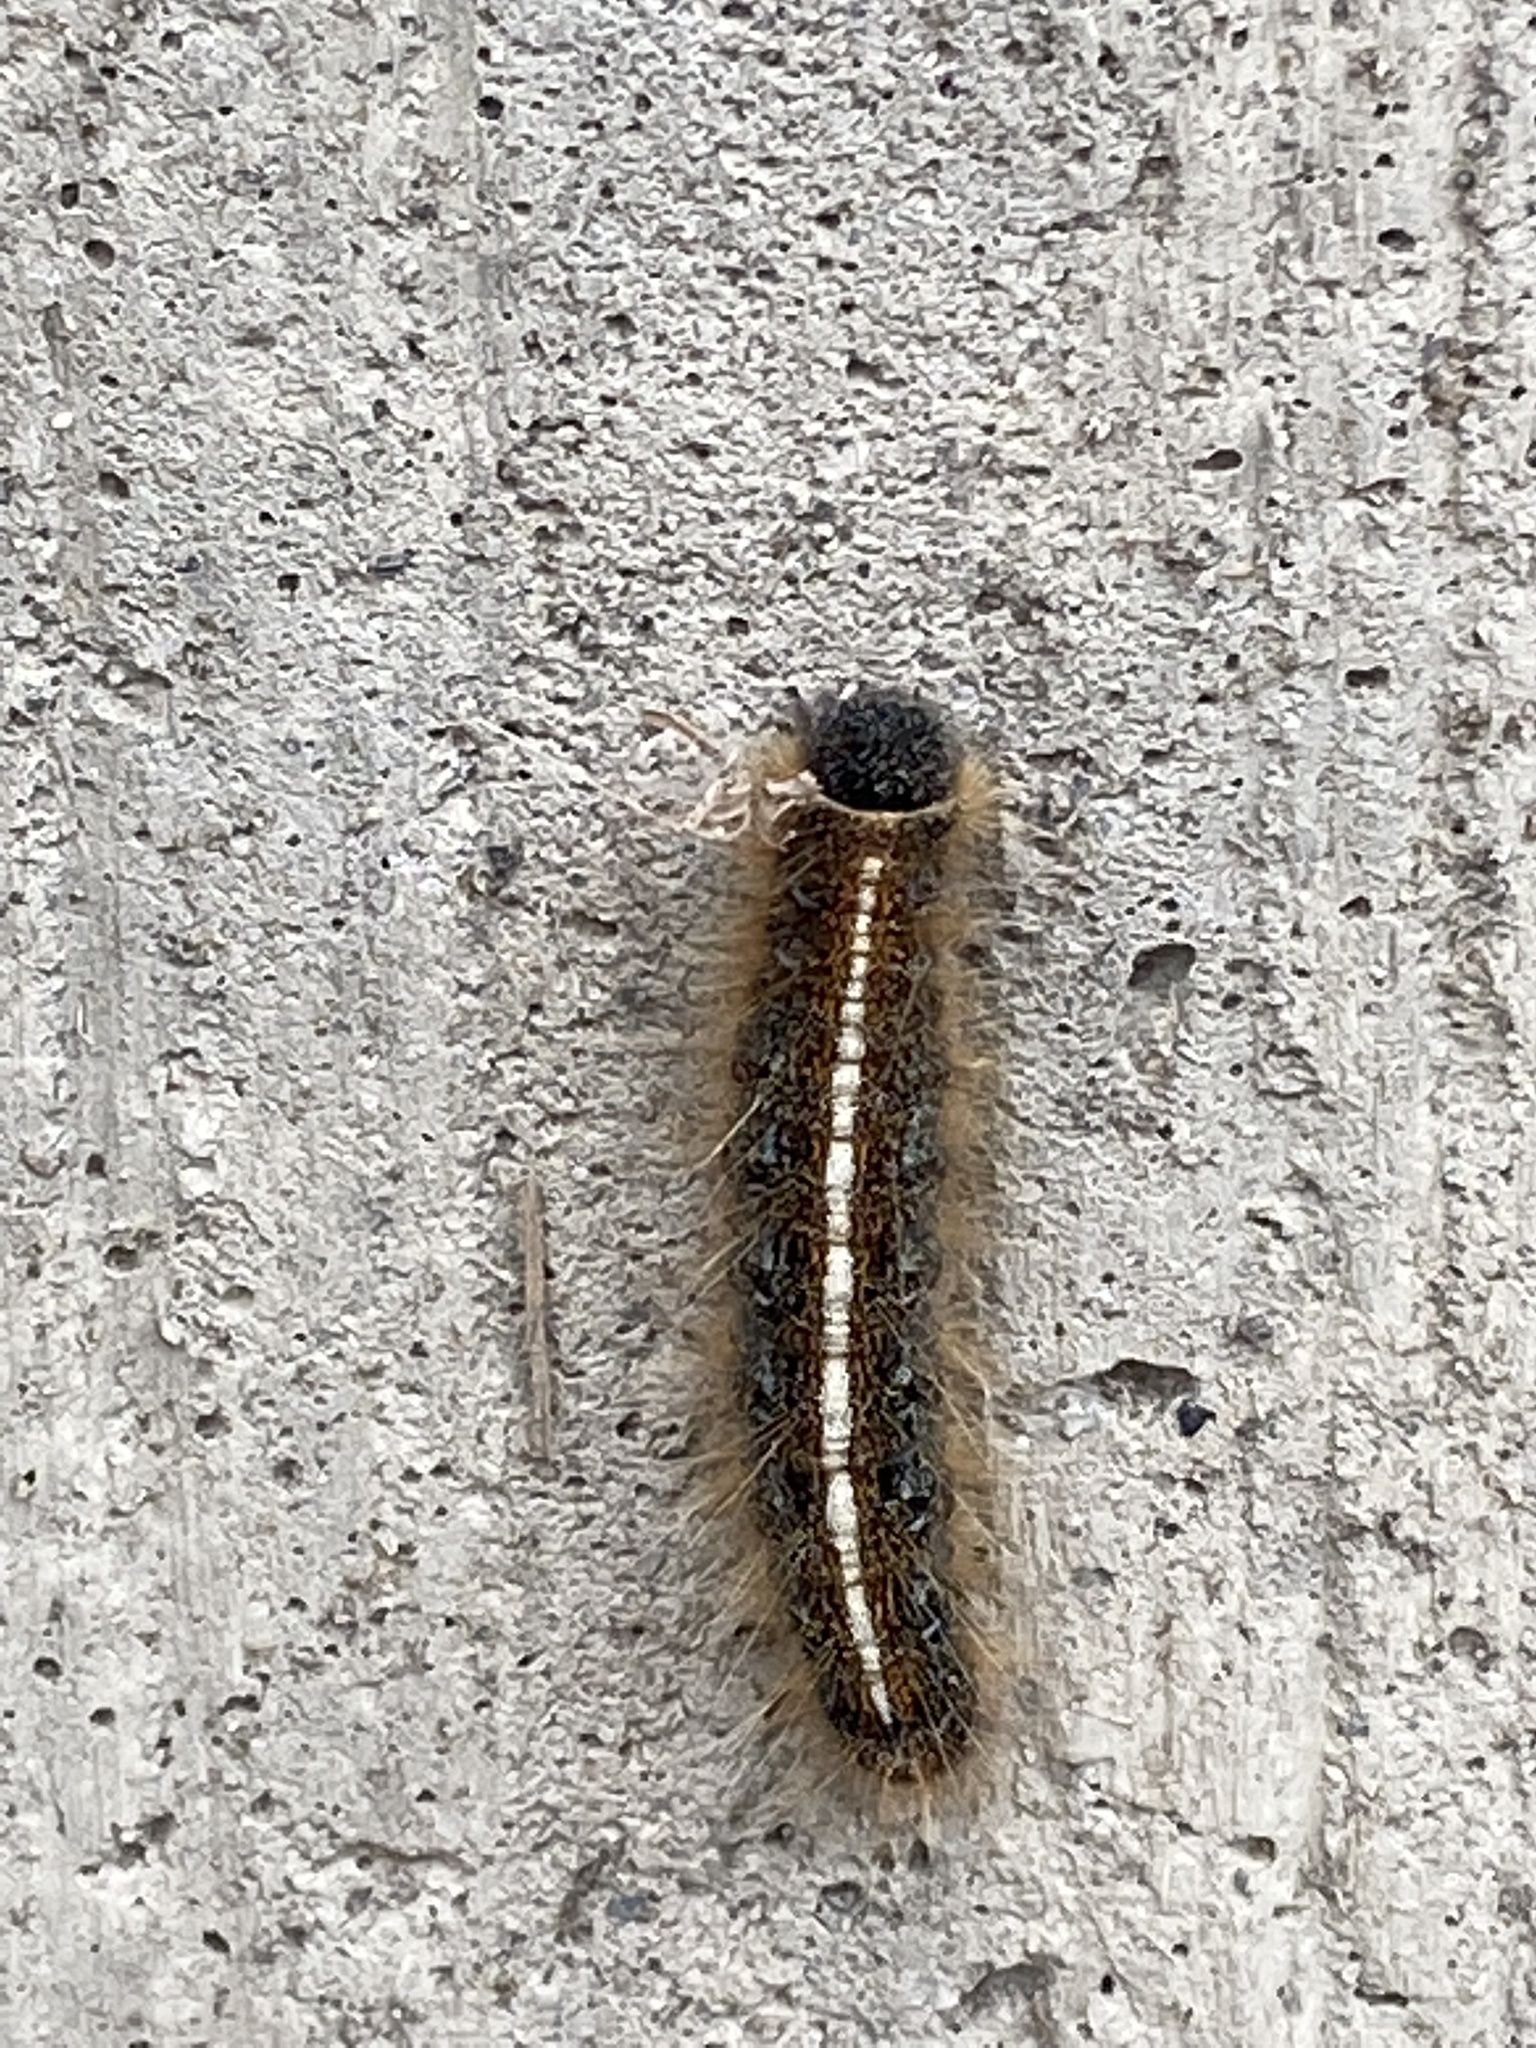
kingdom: Animalia
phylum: Arthropoda
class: Insecta
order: Lepidoptera
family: Lasiocampidae
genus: Malacosoma
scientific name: Malacosoma americana
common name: Eastern tent caterpillar moth
